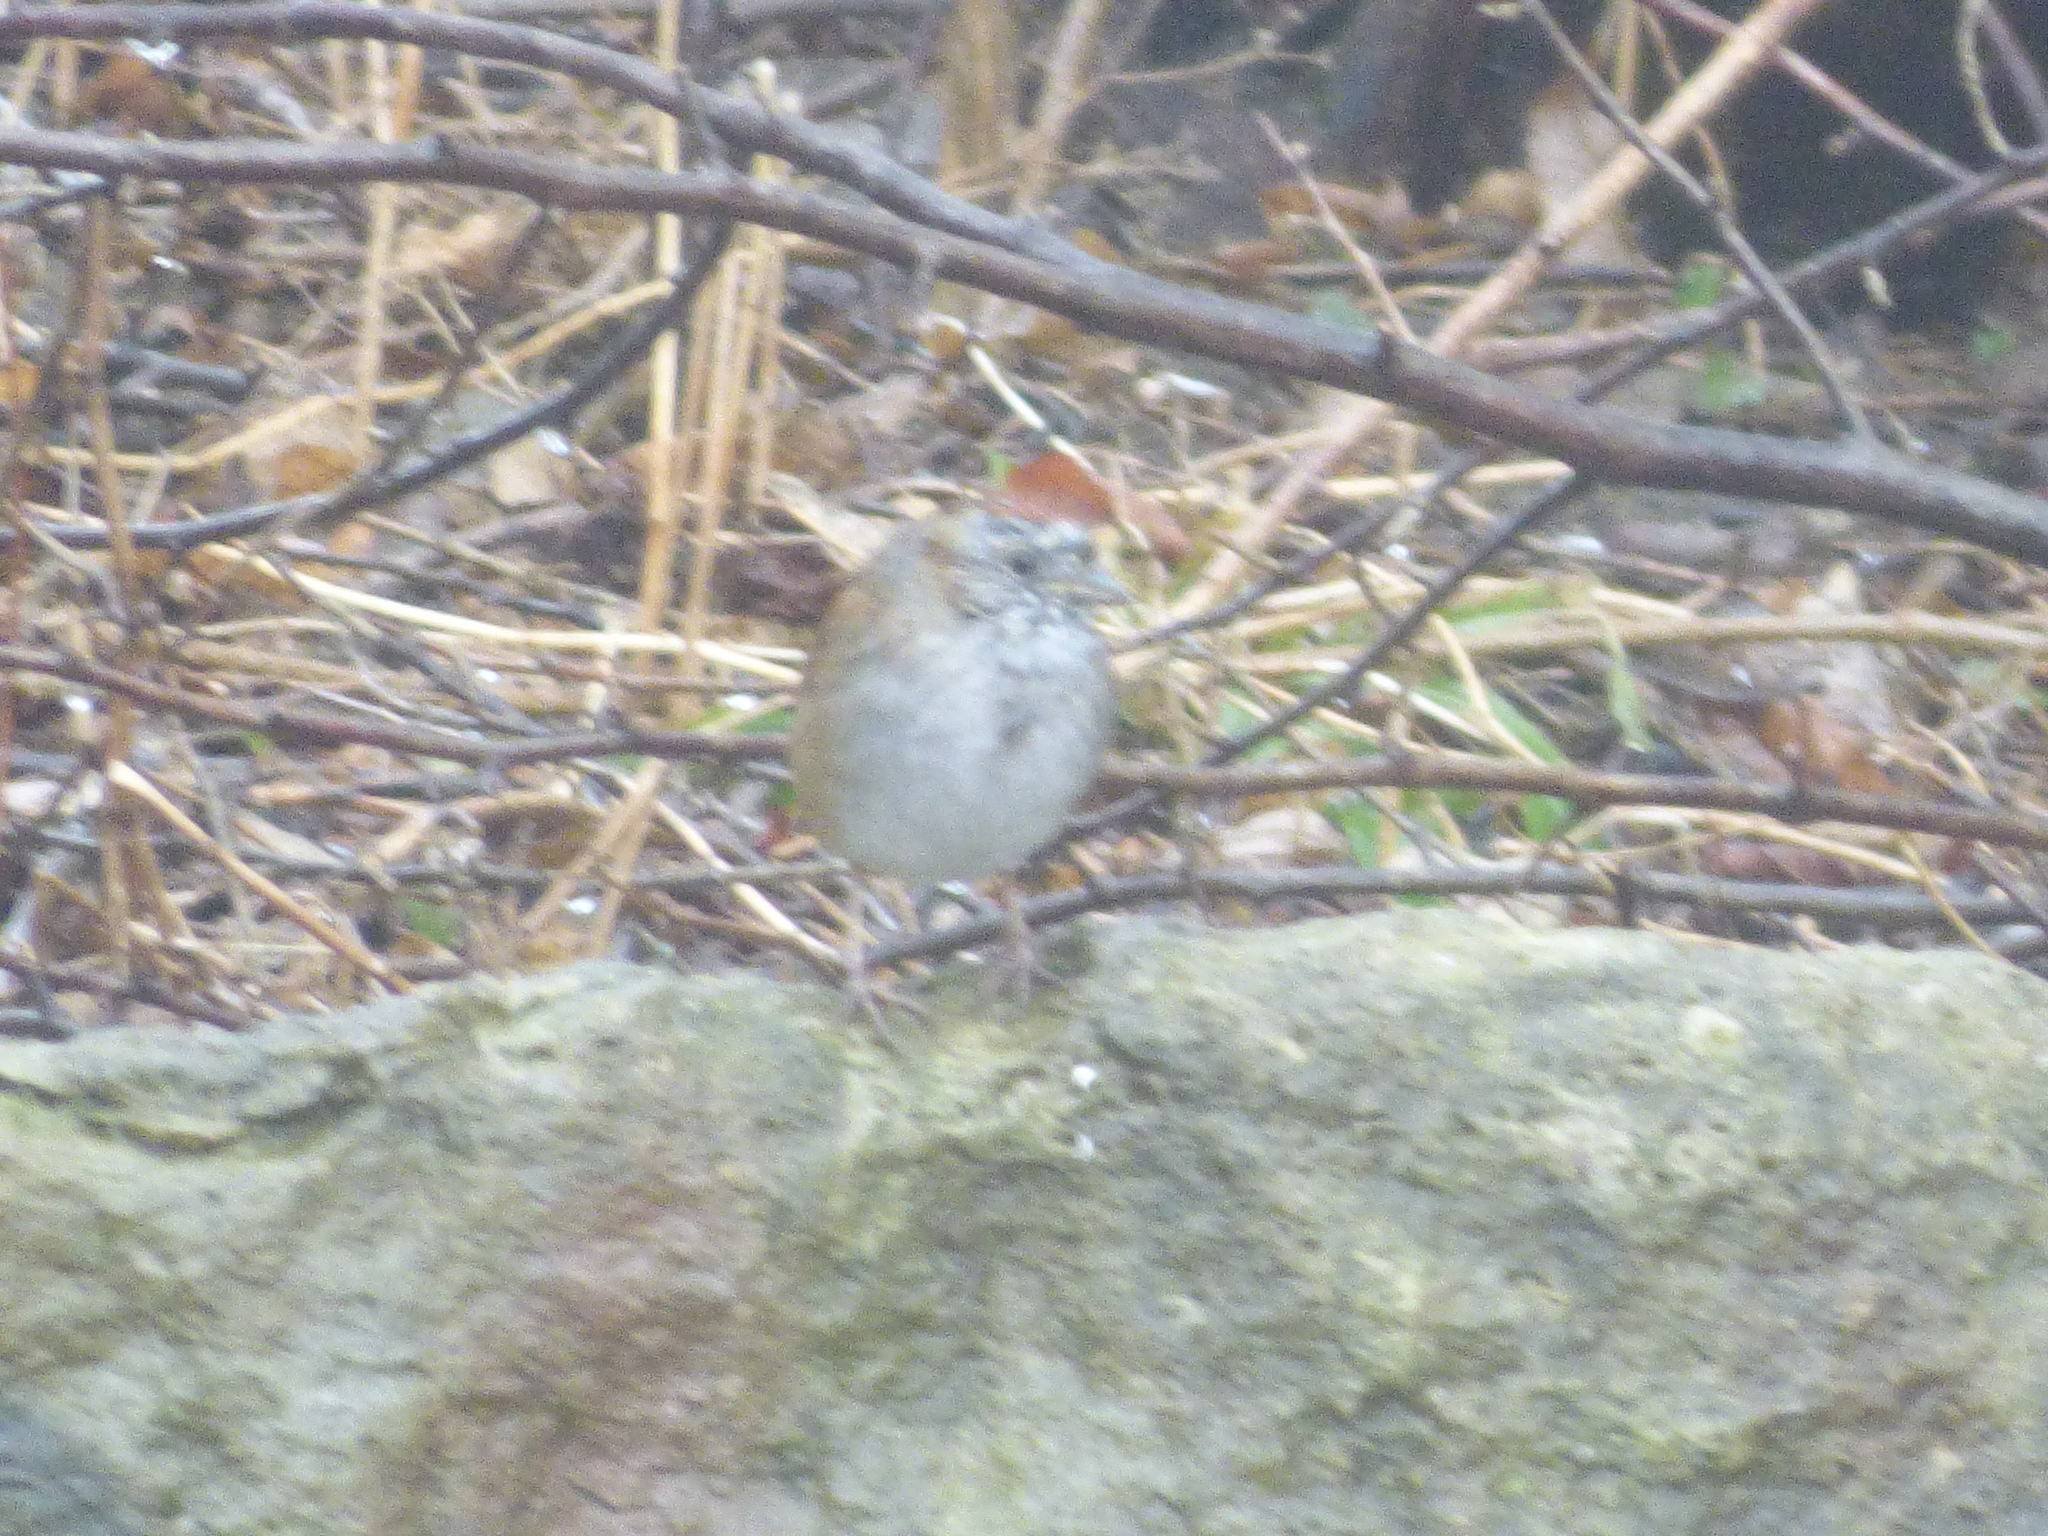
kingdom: Animalia
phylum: Chordata
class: Aves
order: Passeriformes
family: Passerellidae
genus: Melospiza
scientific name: Melospiza georgiana
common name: Swamp sparrow
